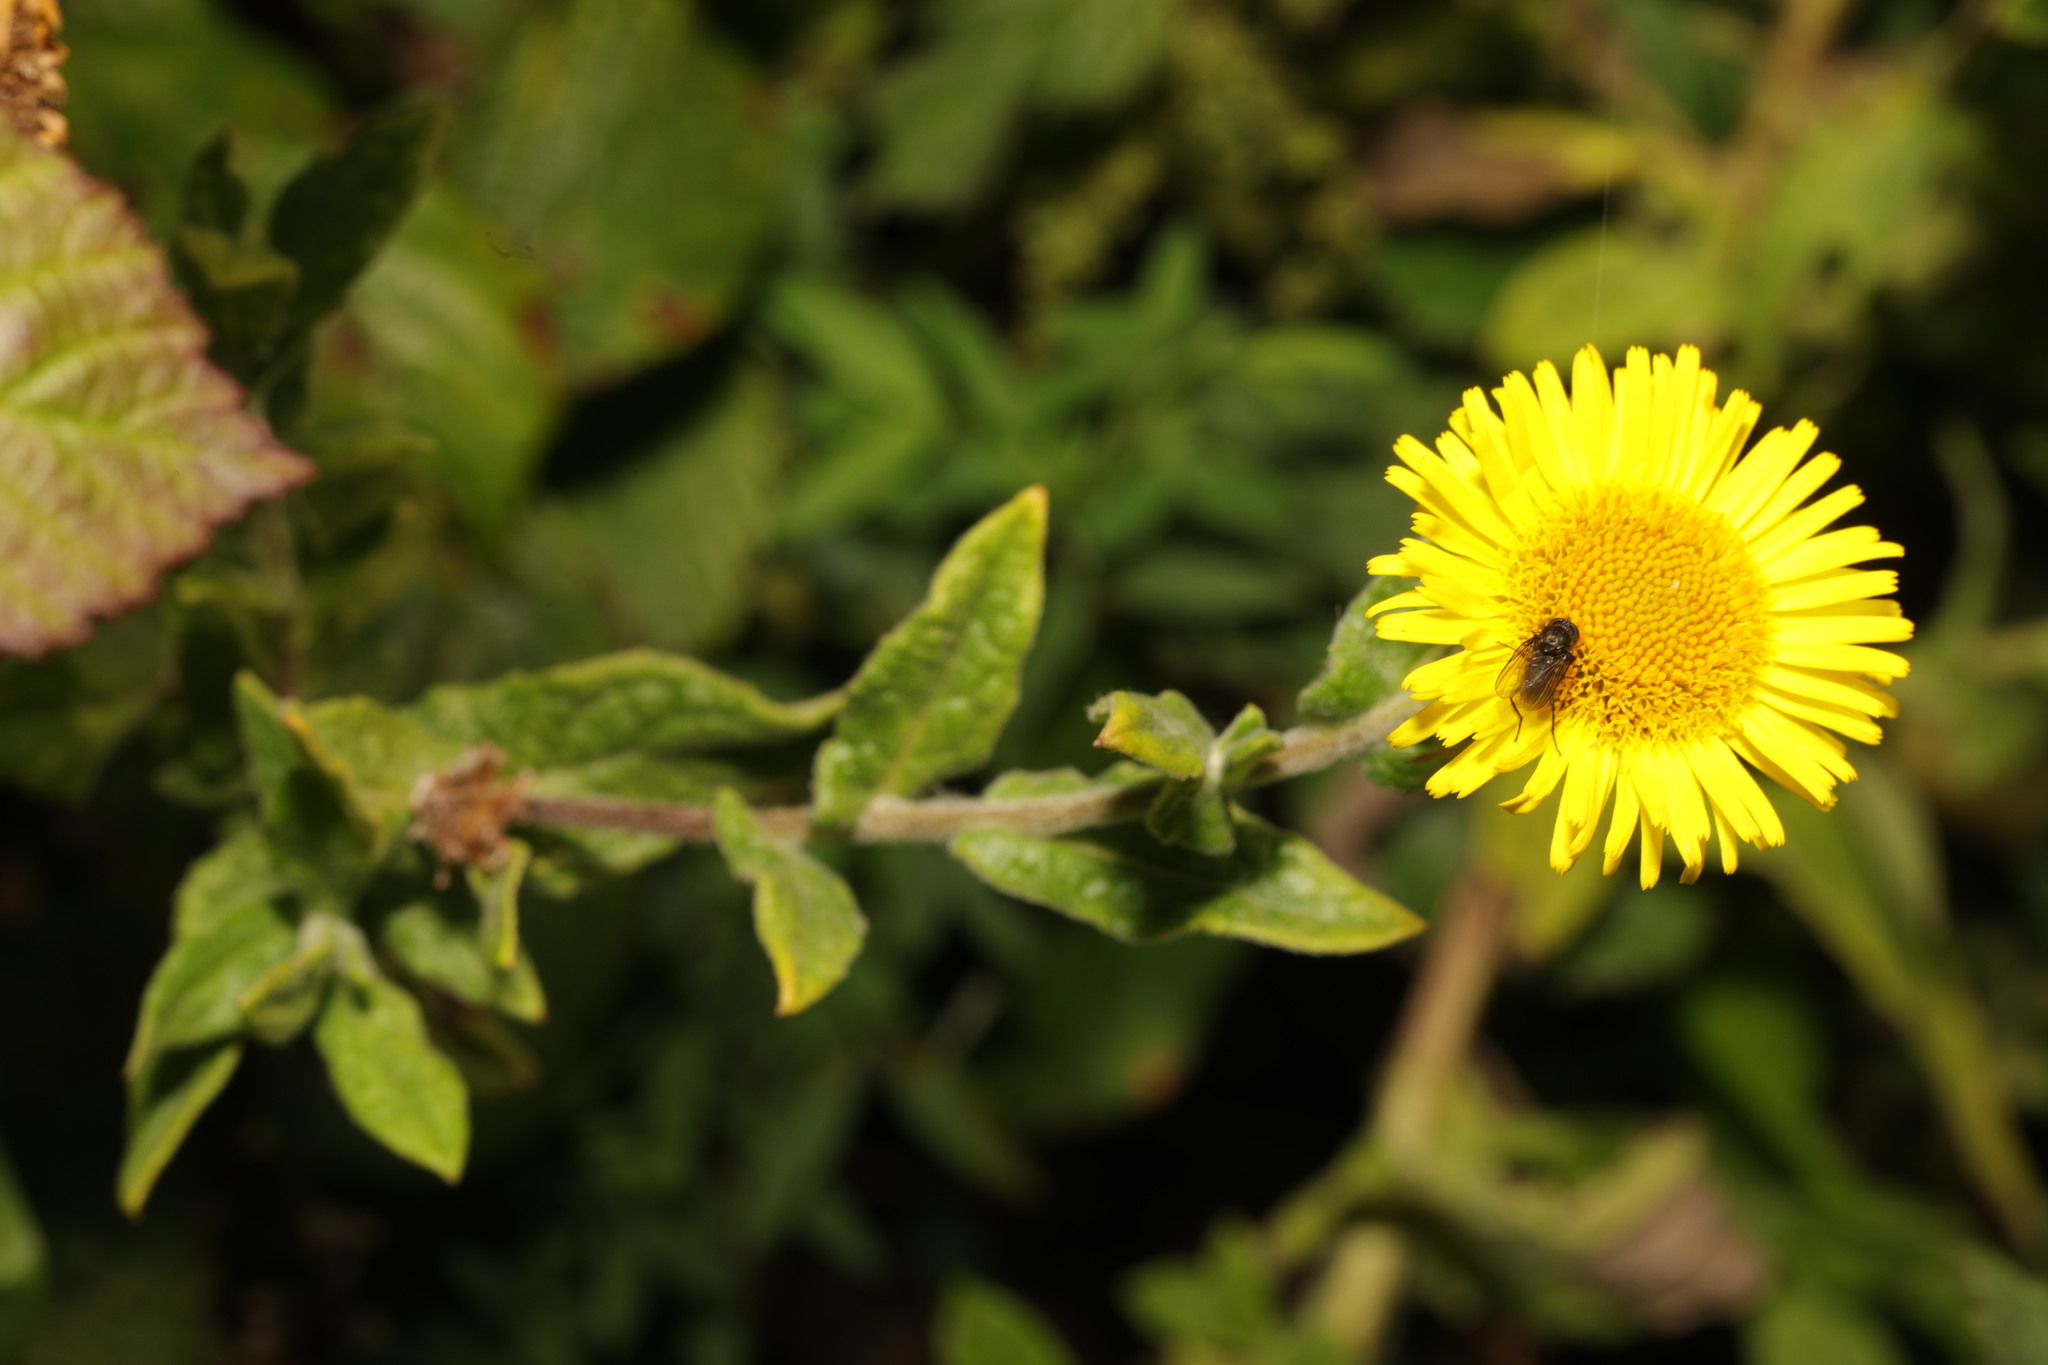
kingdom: Plantae
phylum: Tracheophyta
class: Magnoliopsida
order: Asterales
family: Asteraceae
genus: Pulicaria
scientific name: Pulicaria dysenterica
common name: Common fleabane
